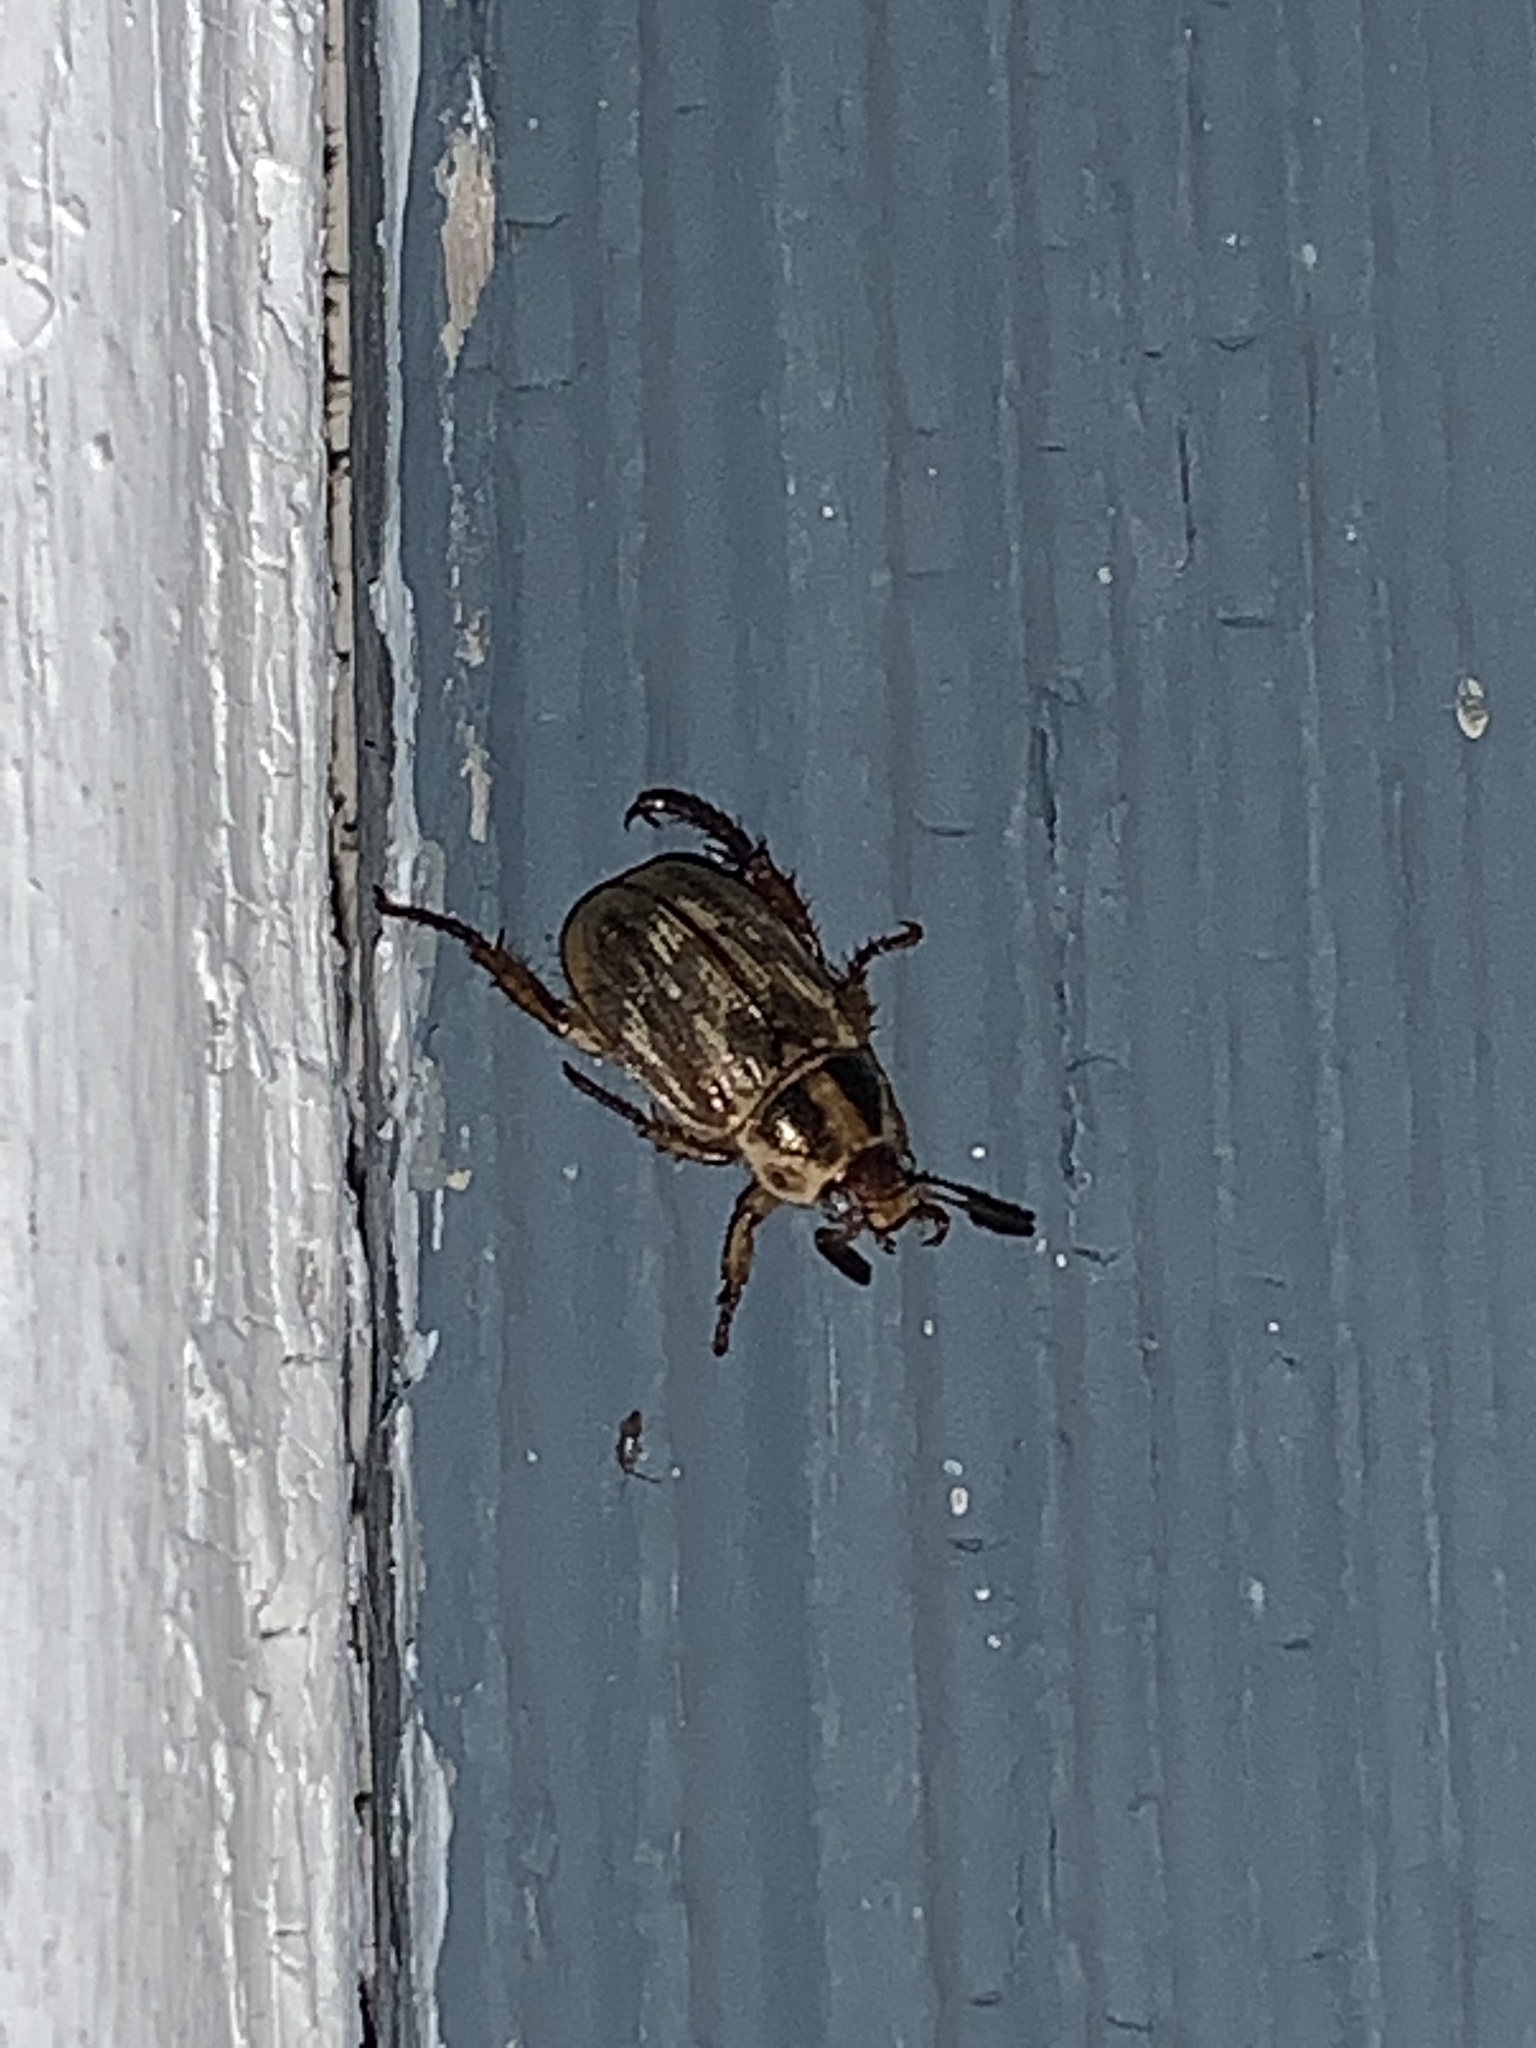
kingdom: Animalia
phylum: Arthropoda
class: Insecta
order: Coleoptera
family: Scarabaeidae
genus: Exomala
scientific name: Exomala orientalis
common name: Oriental beetle
